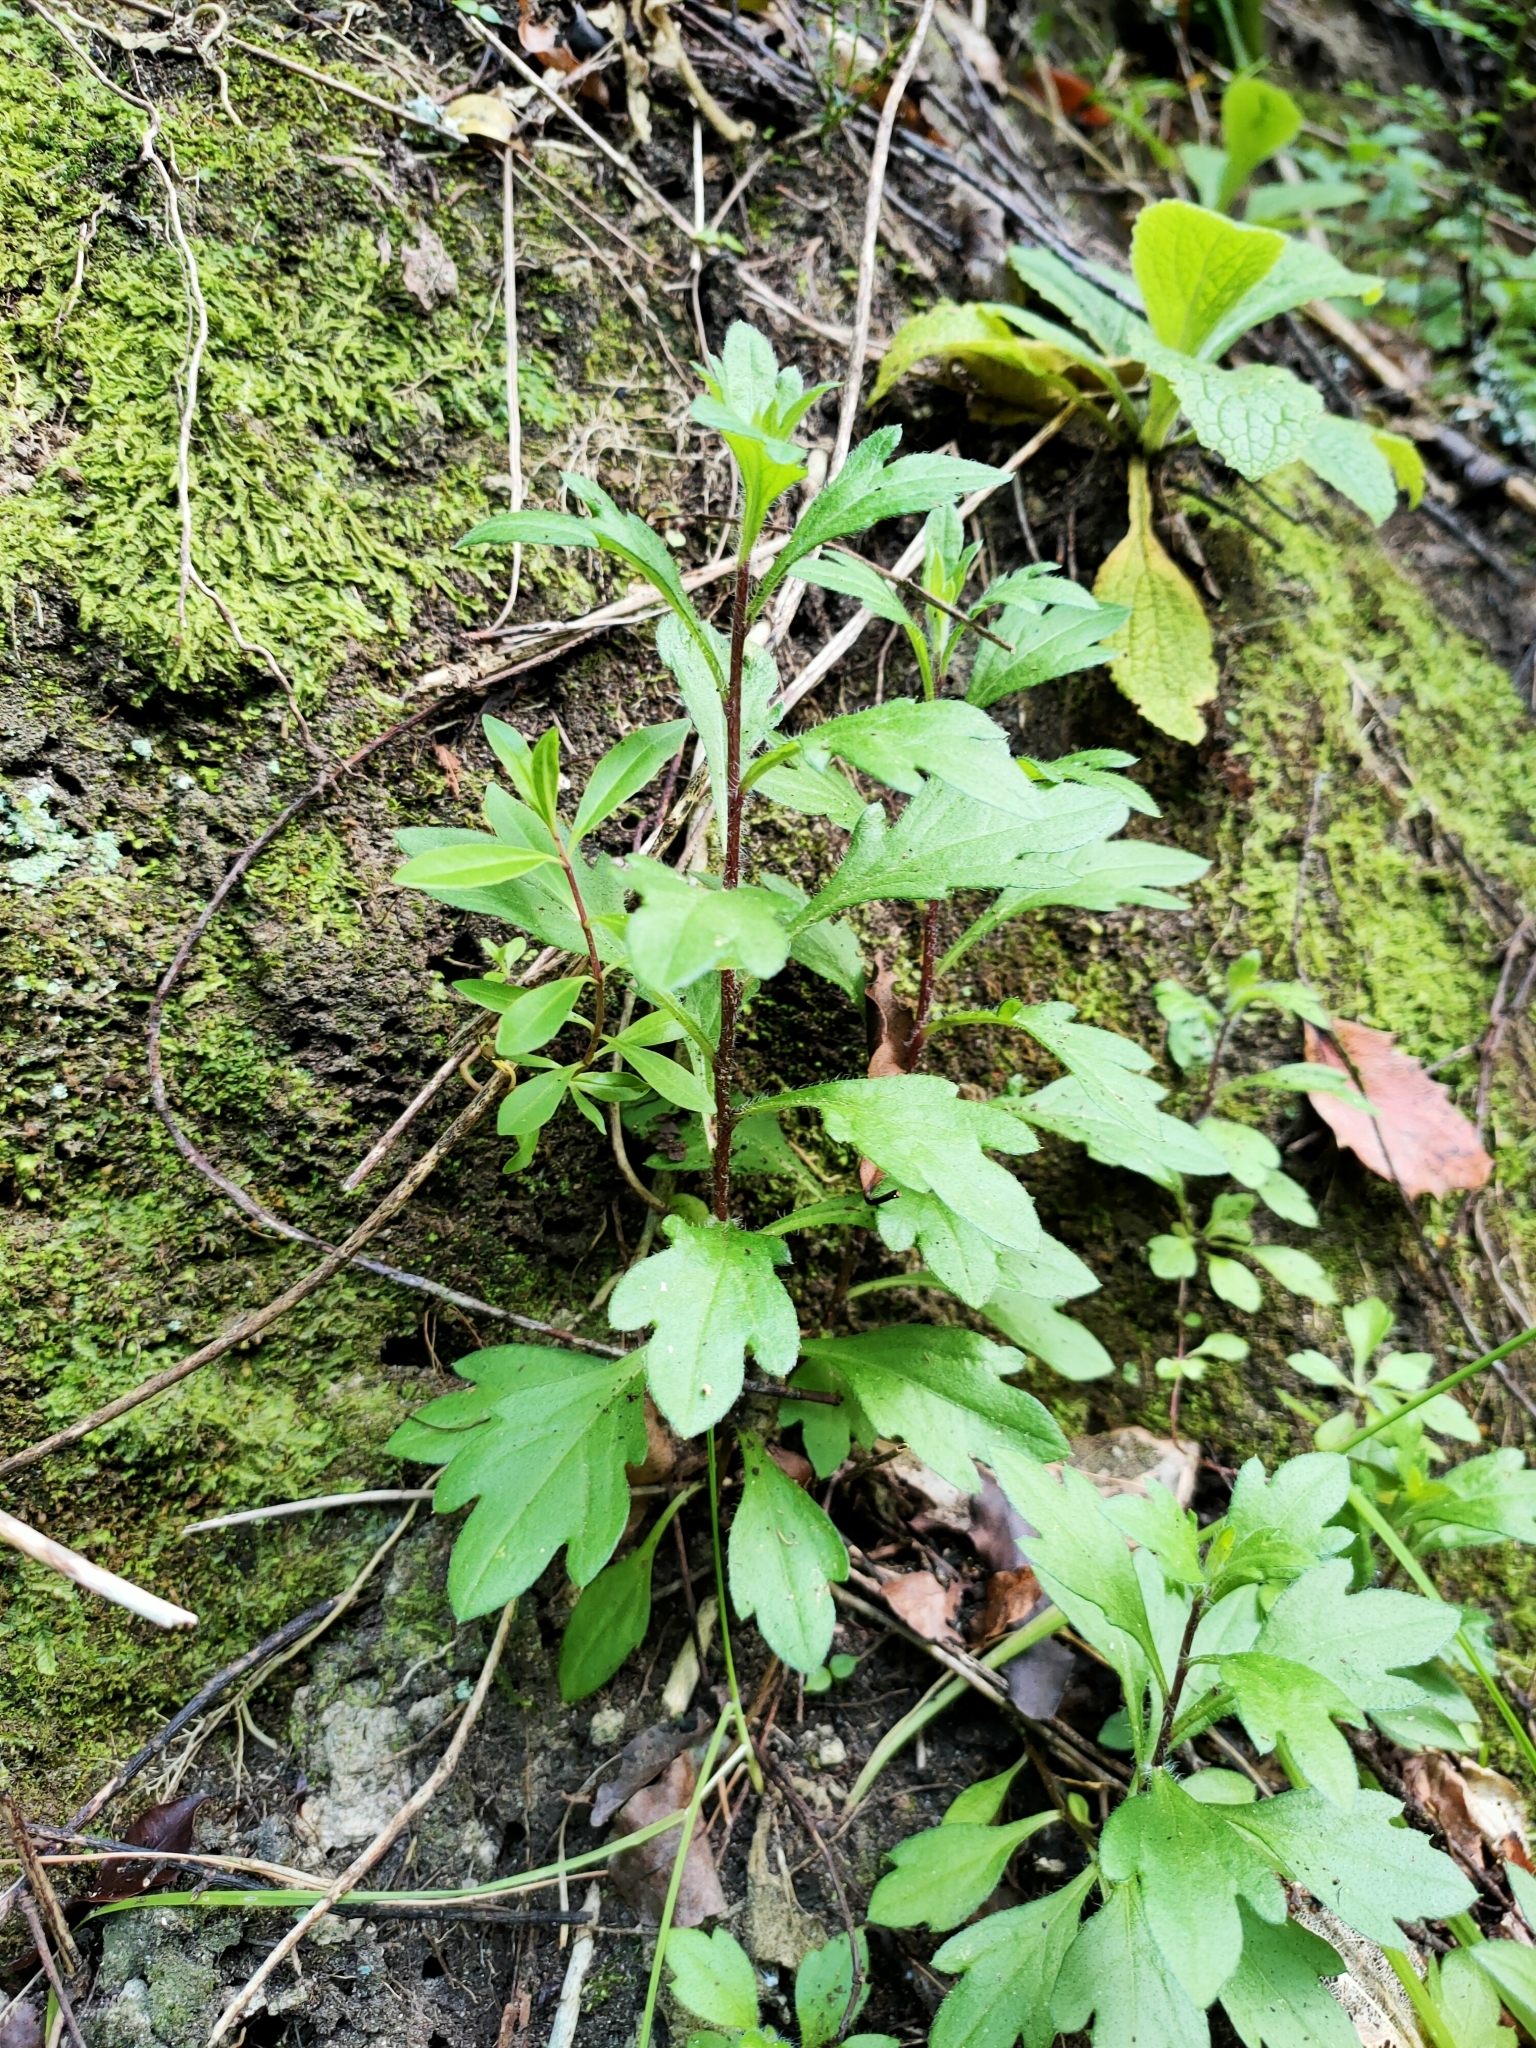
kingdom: Plantae
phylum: Tracheophyta
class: Magnoliopsida
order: Asterales
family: Asteraceae
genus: Erigeron
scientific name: Erigeron karvinskianus
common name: Mexican fleabane
